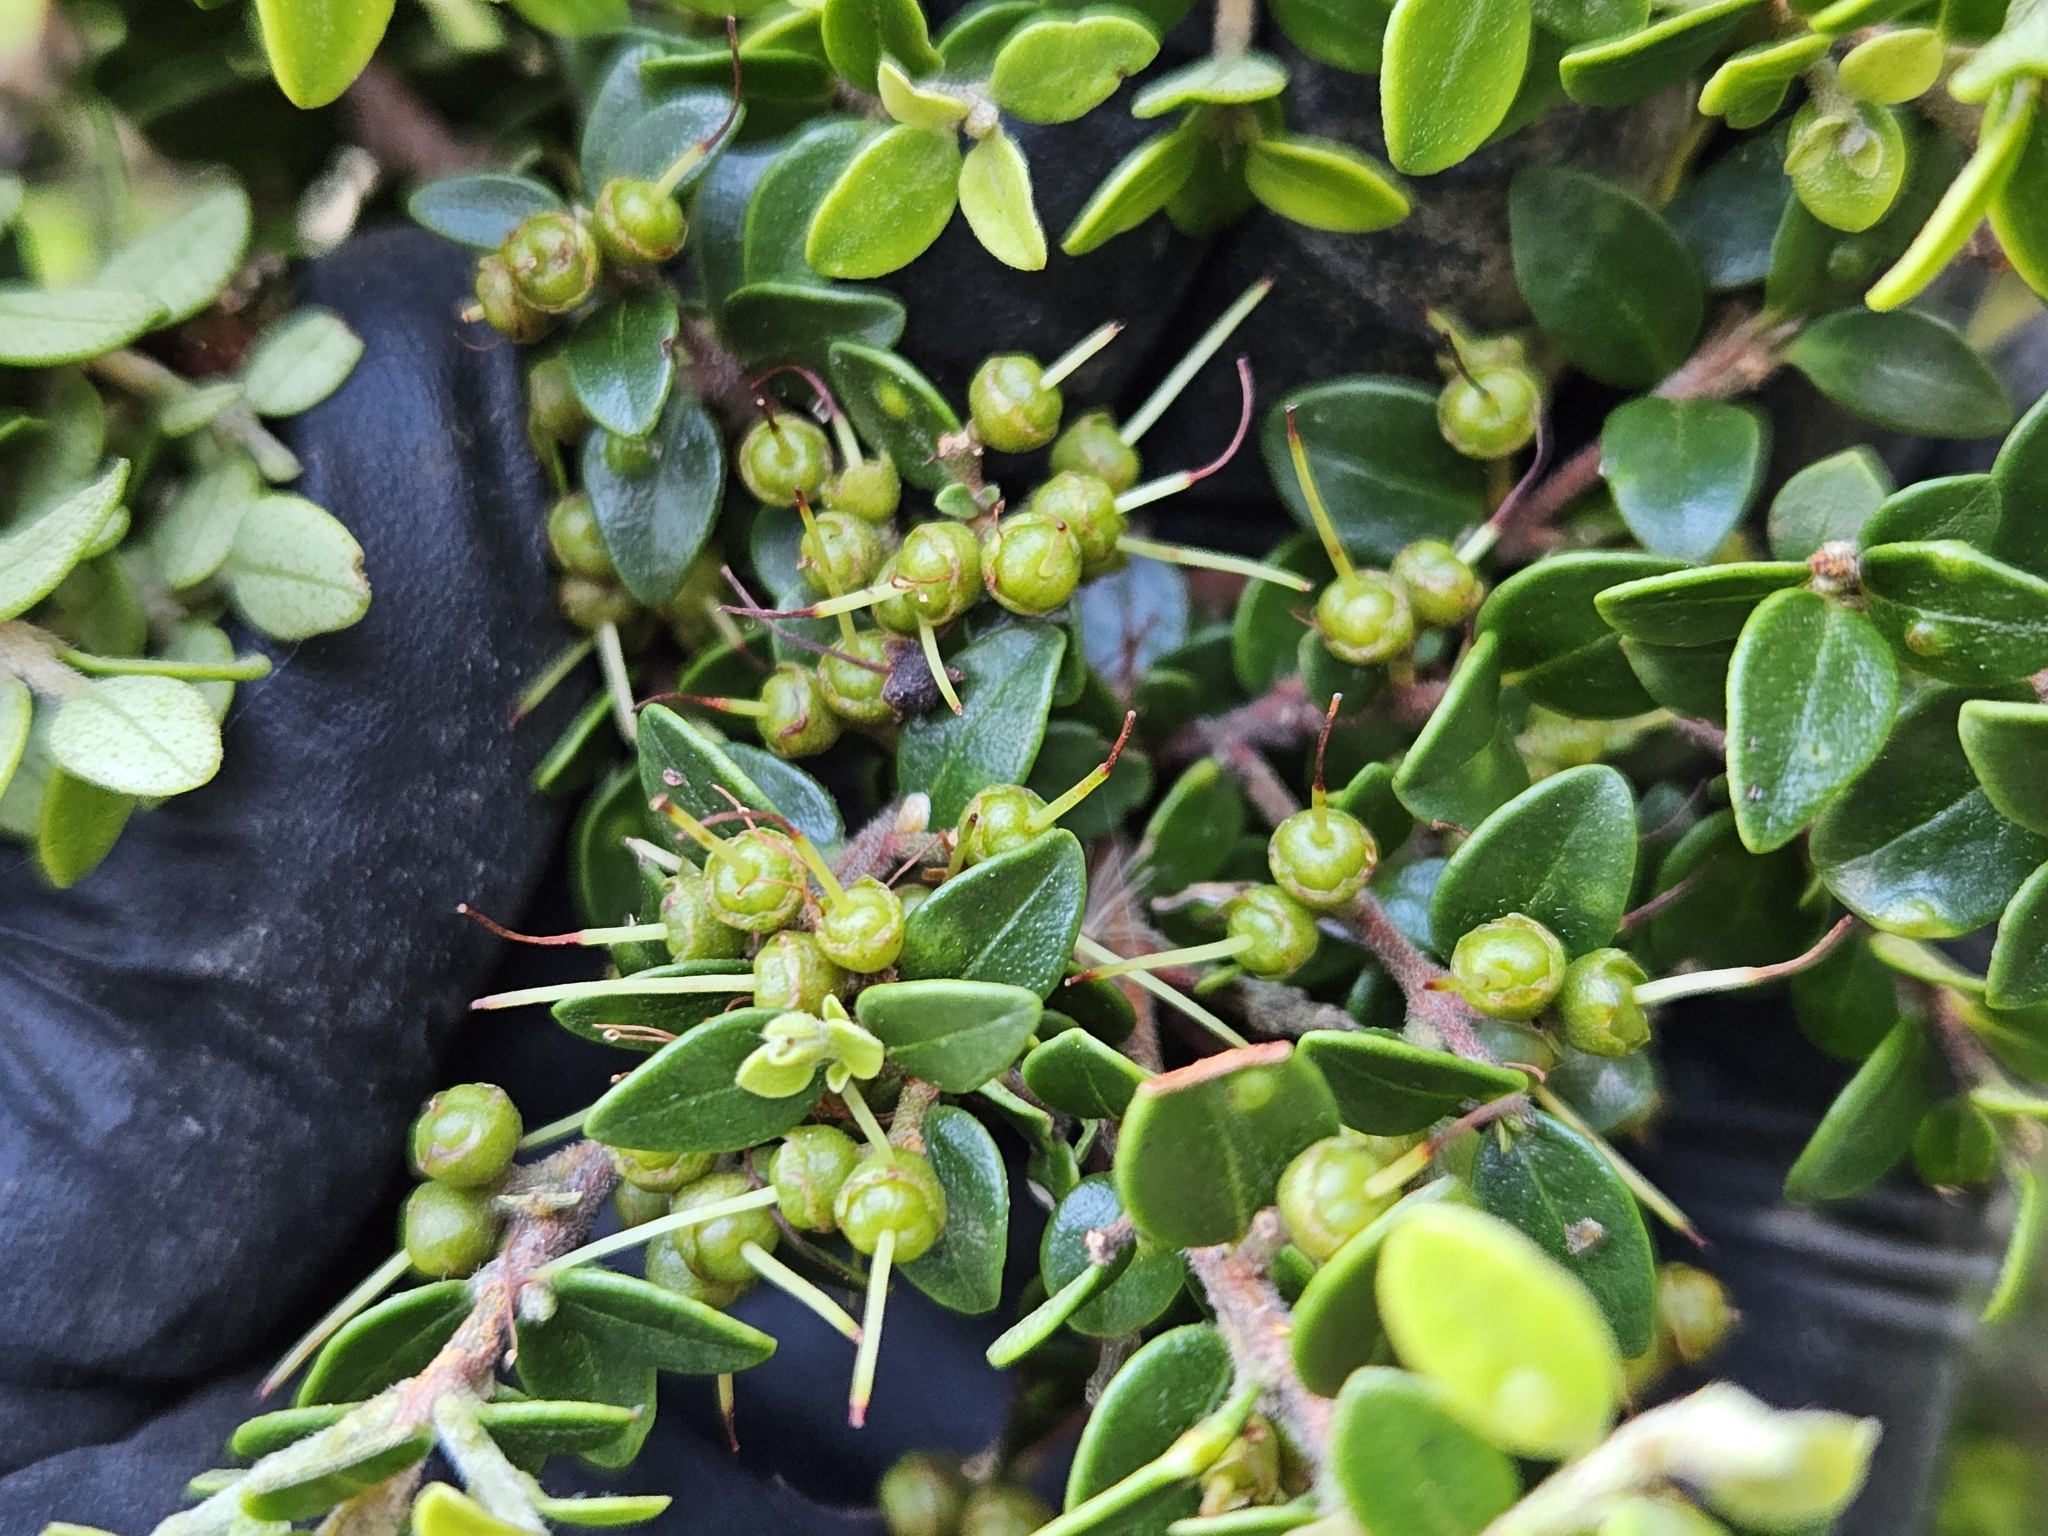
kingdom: Plantae
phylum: Tracheophyta
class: Magnoliopsida
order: Myrtales
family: Myrtaceae
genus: Metrosideros
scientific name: Metrosideros perforata
